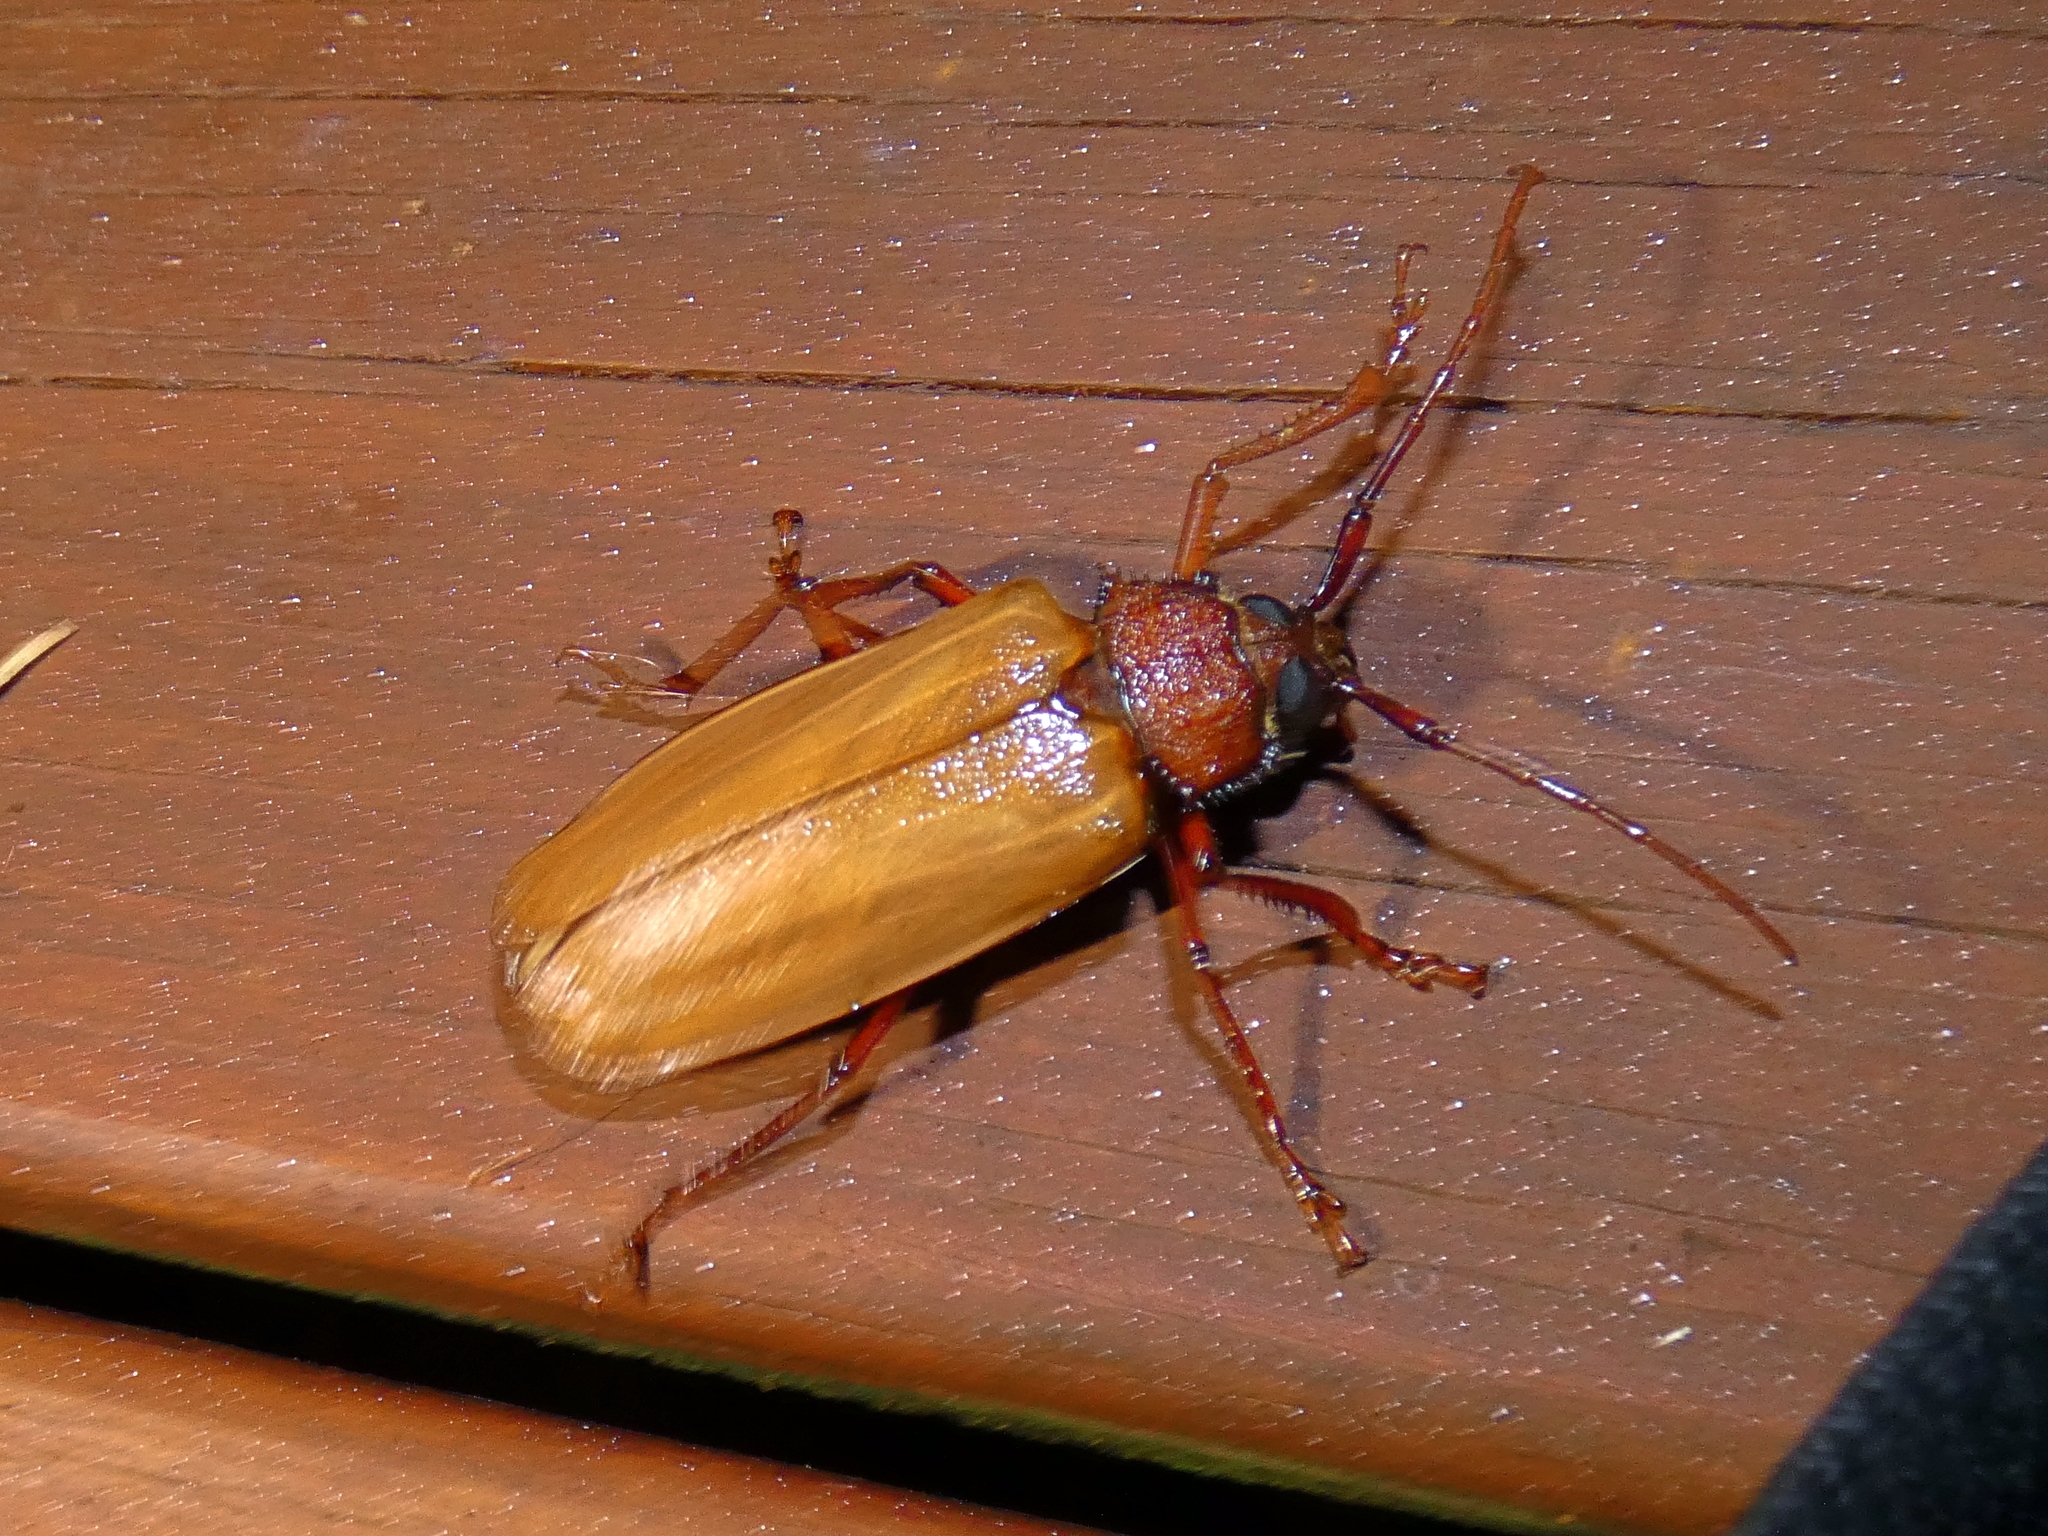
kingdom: Animalia
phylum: Arthropoda
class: Insecta
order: Coleoptera
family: Cerambycidae
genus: Agrianome
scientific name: Agrianome spinicollis
